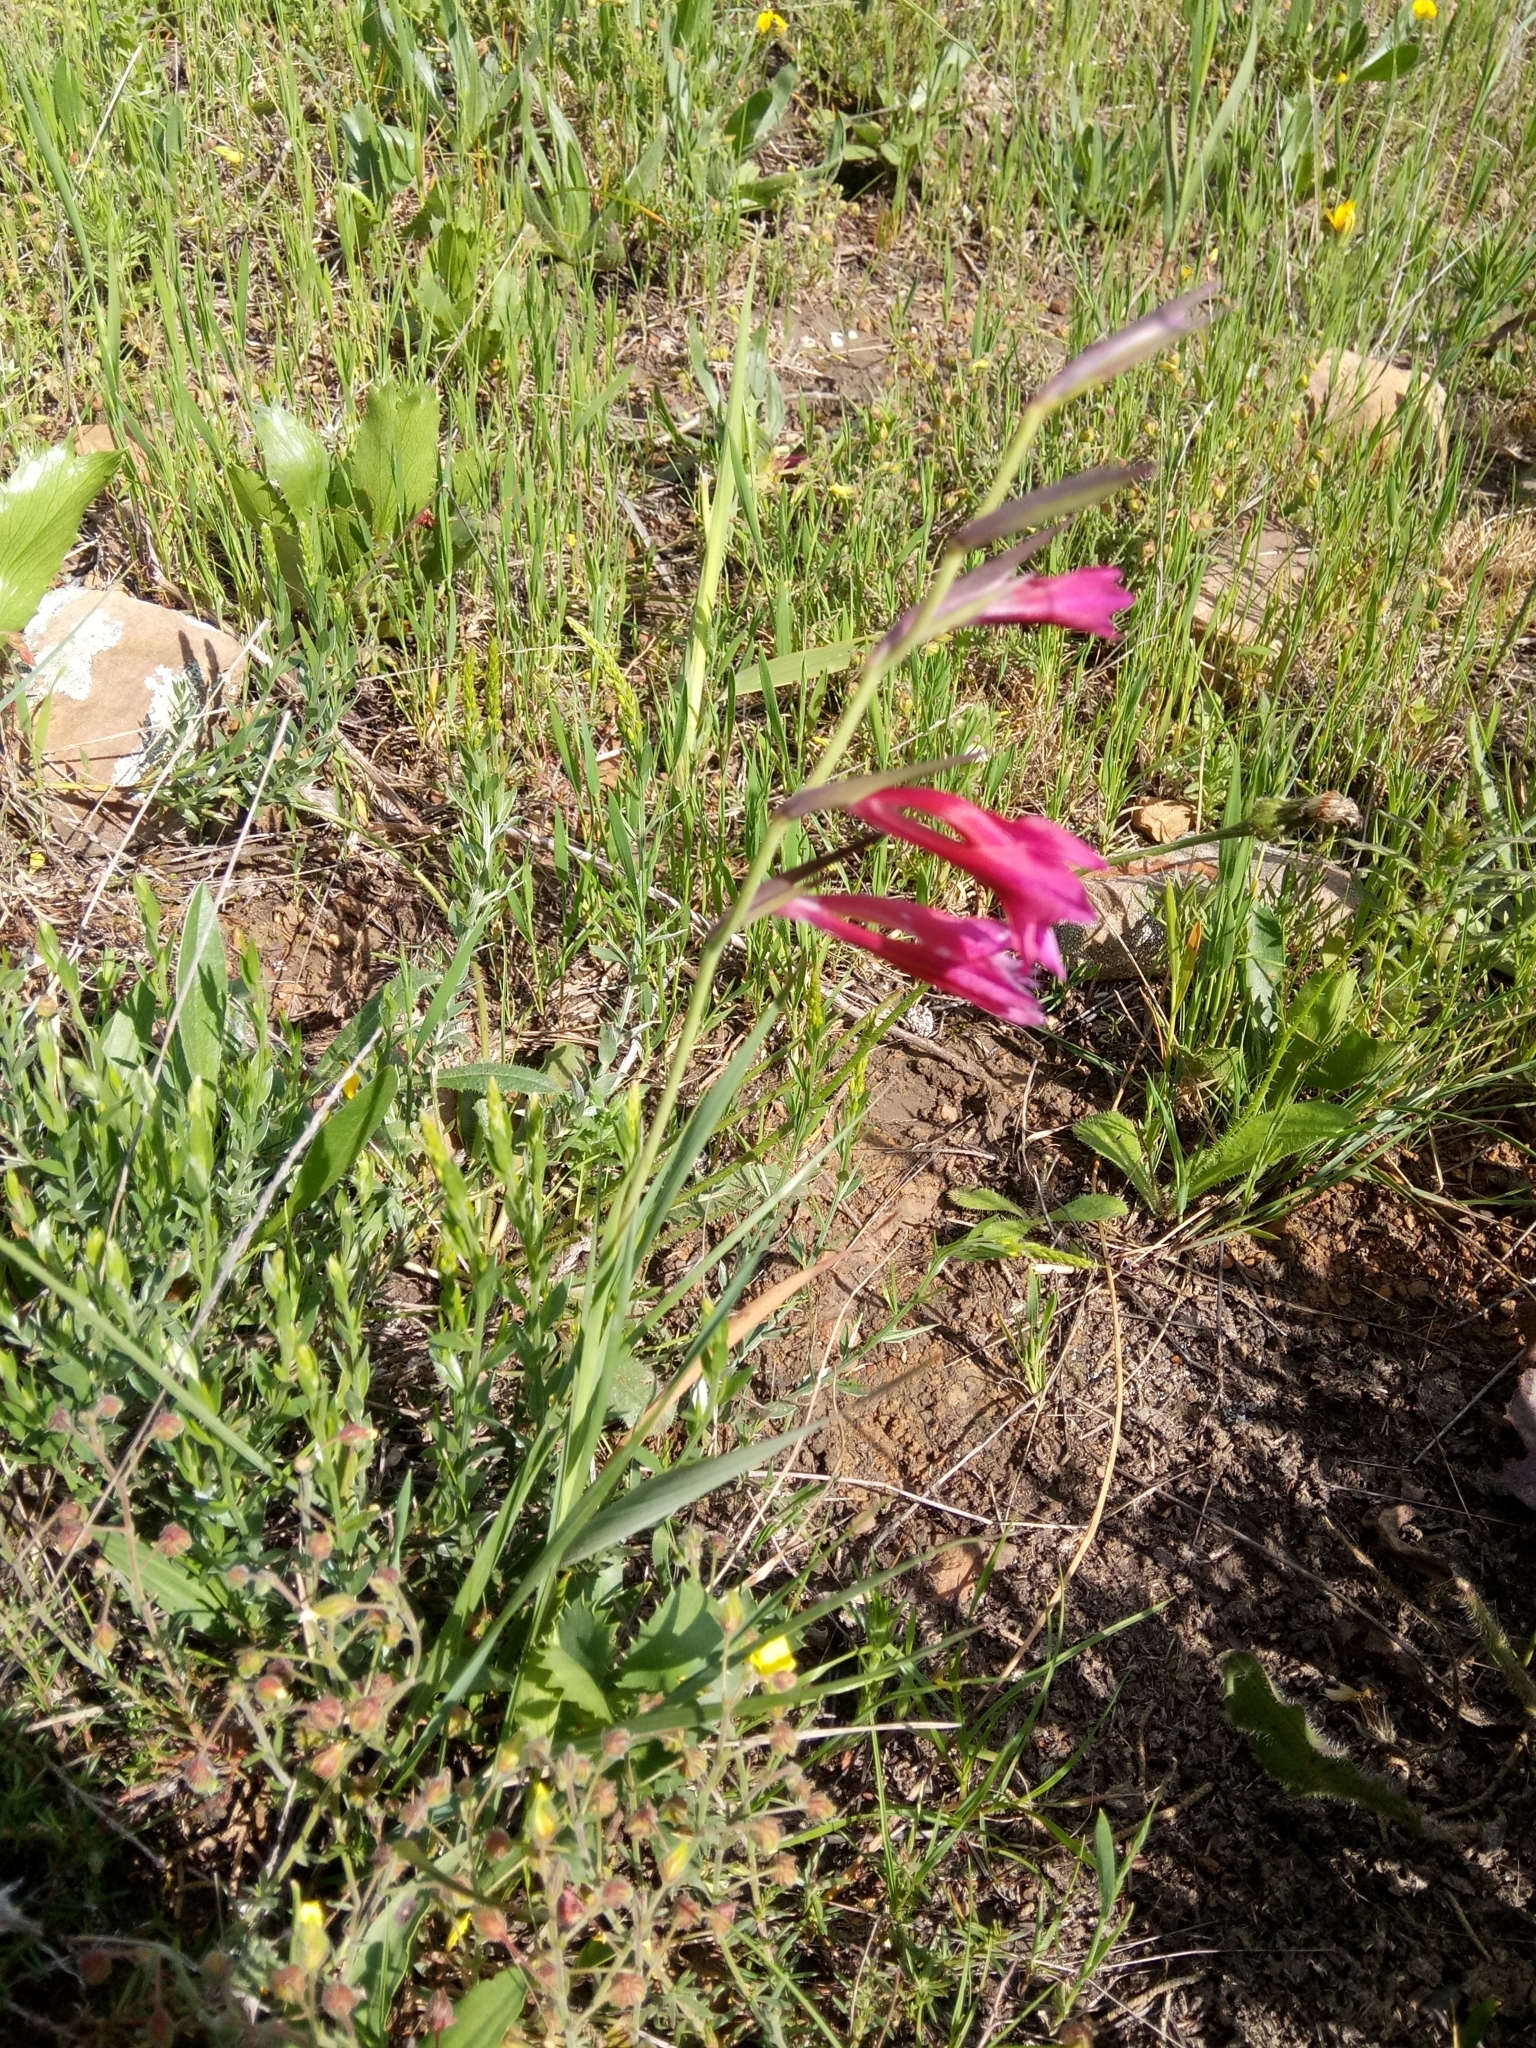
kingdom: Plantae
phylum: Tracheophyta
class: Liliopsida
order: Asparagales
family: Iridaceae
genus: Gladiolus
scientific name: Gladiolus italicus
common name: Field gladiolus
